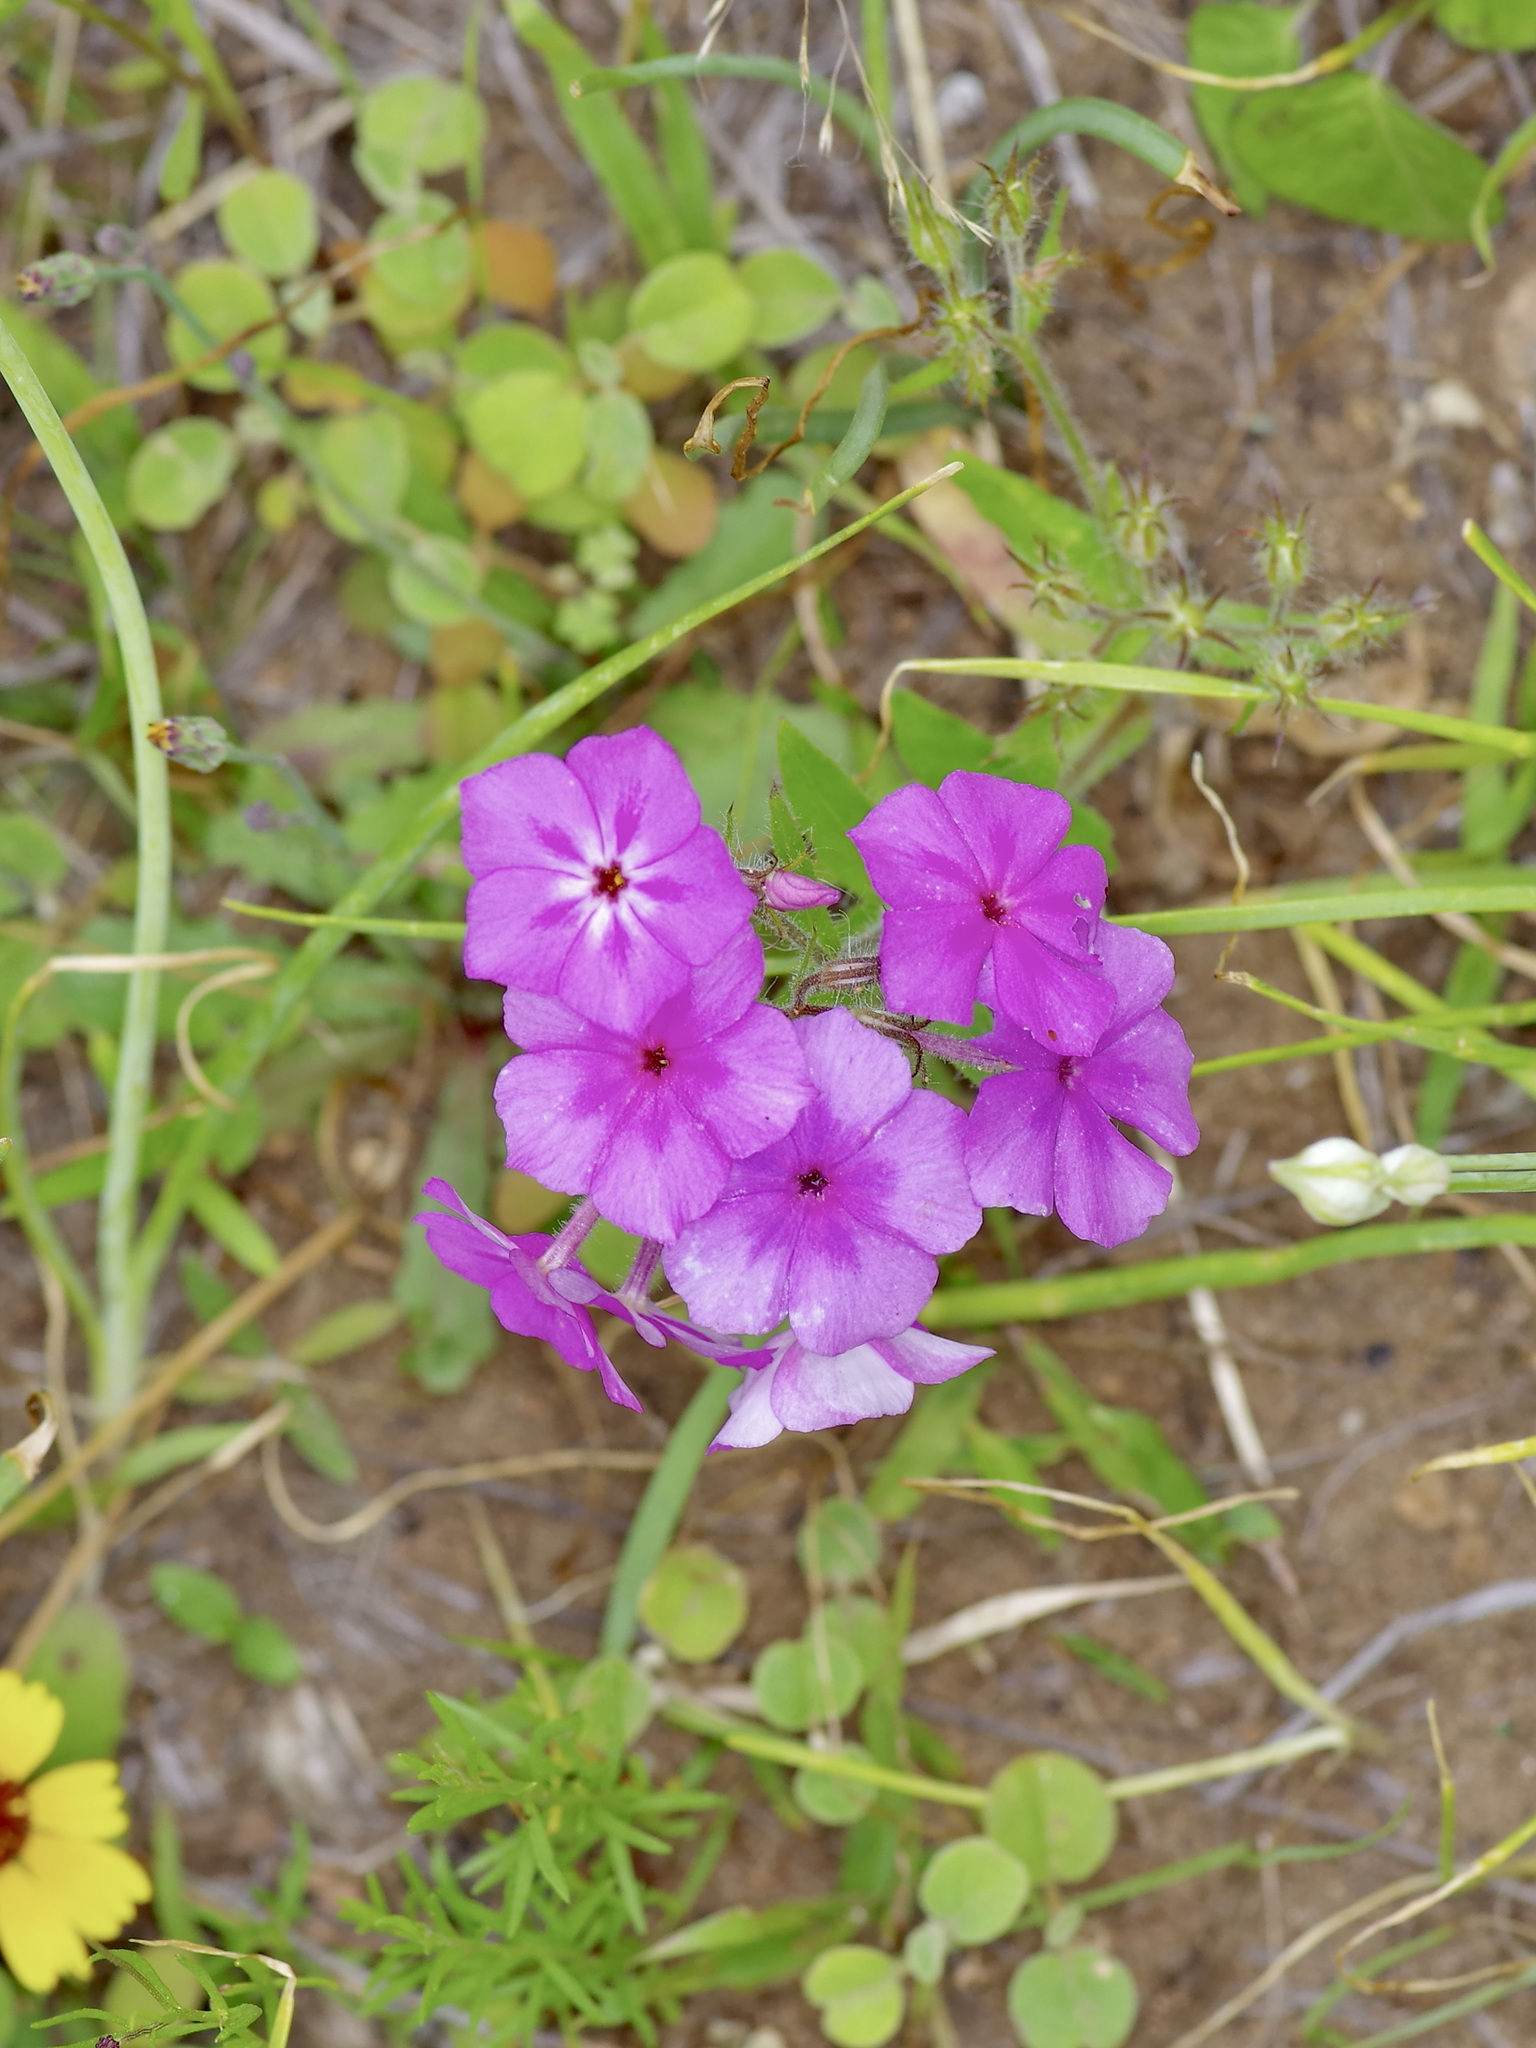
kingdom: Plantae
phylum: Tracheophyta
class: Magnoliopsida
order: Ericales
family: Polemoniaceae
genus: Phlox
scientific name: Phlox drummondii
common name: Drummond's phlox
